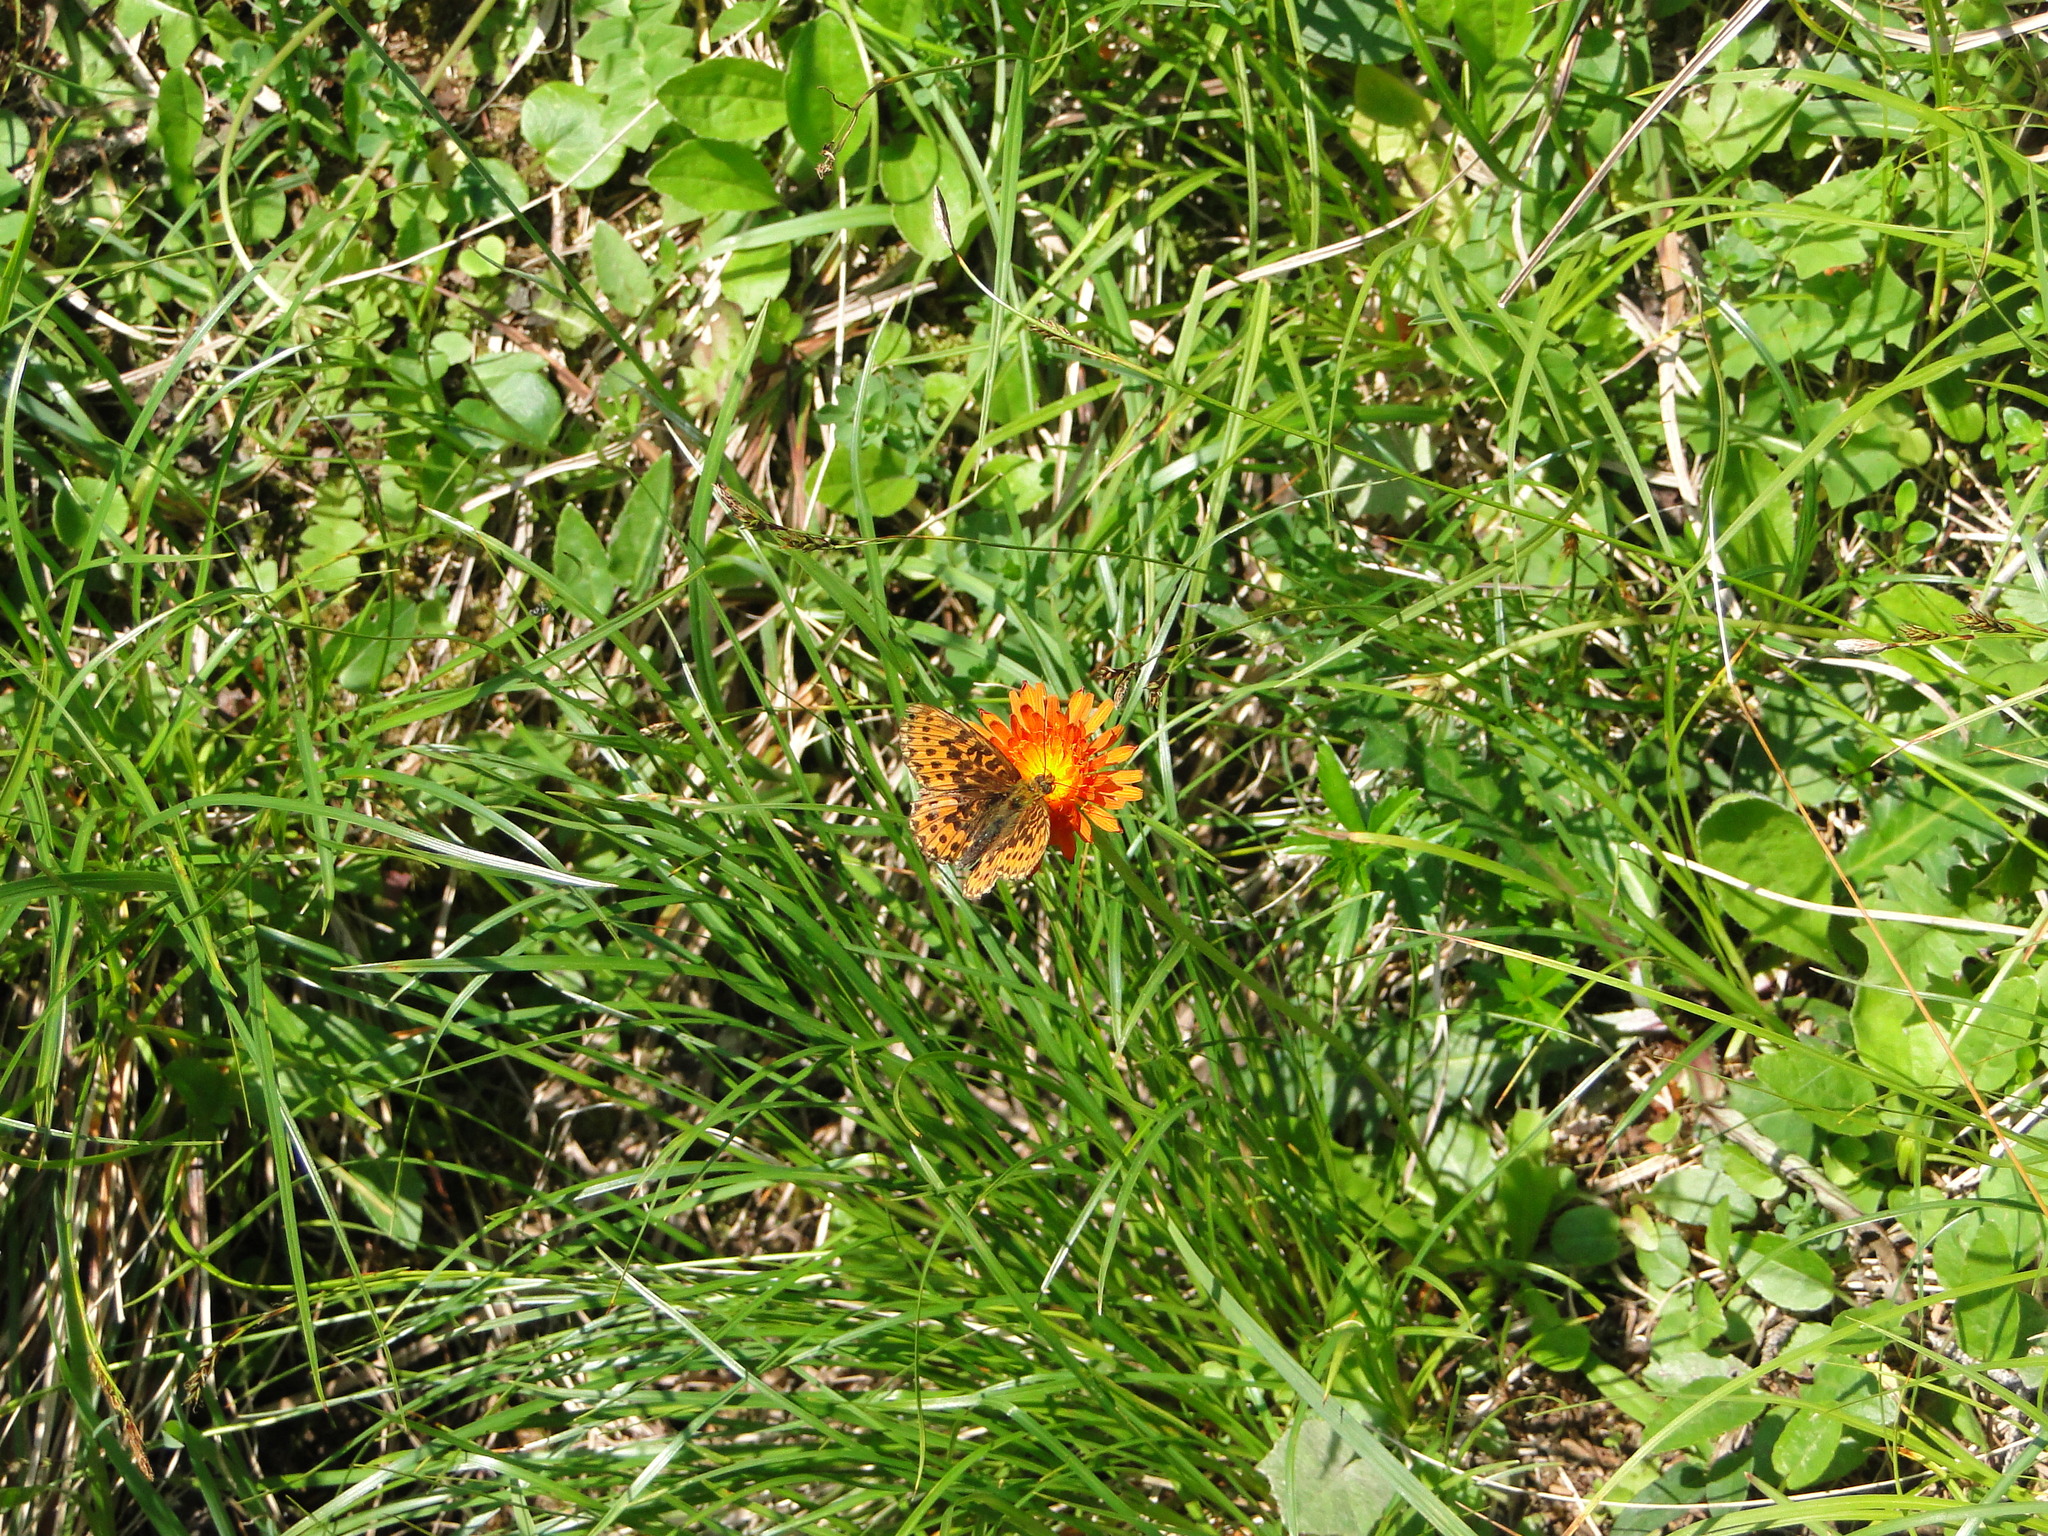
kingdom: Animalia
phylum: Arthropoda
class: Insecta
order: Lepidoptera
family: Nymphalidae
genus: Clossiana
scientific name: Clossiana euphrosyne
